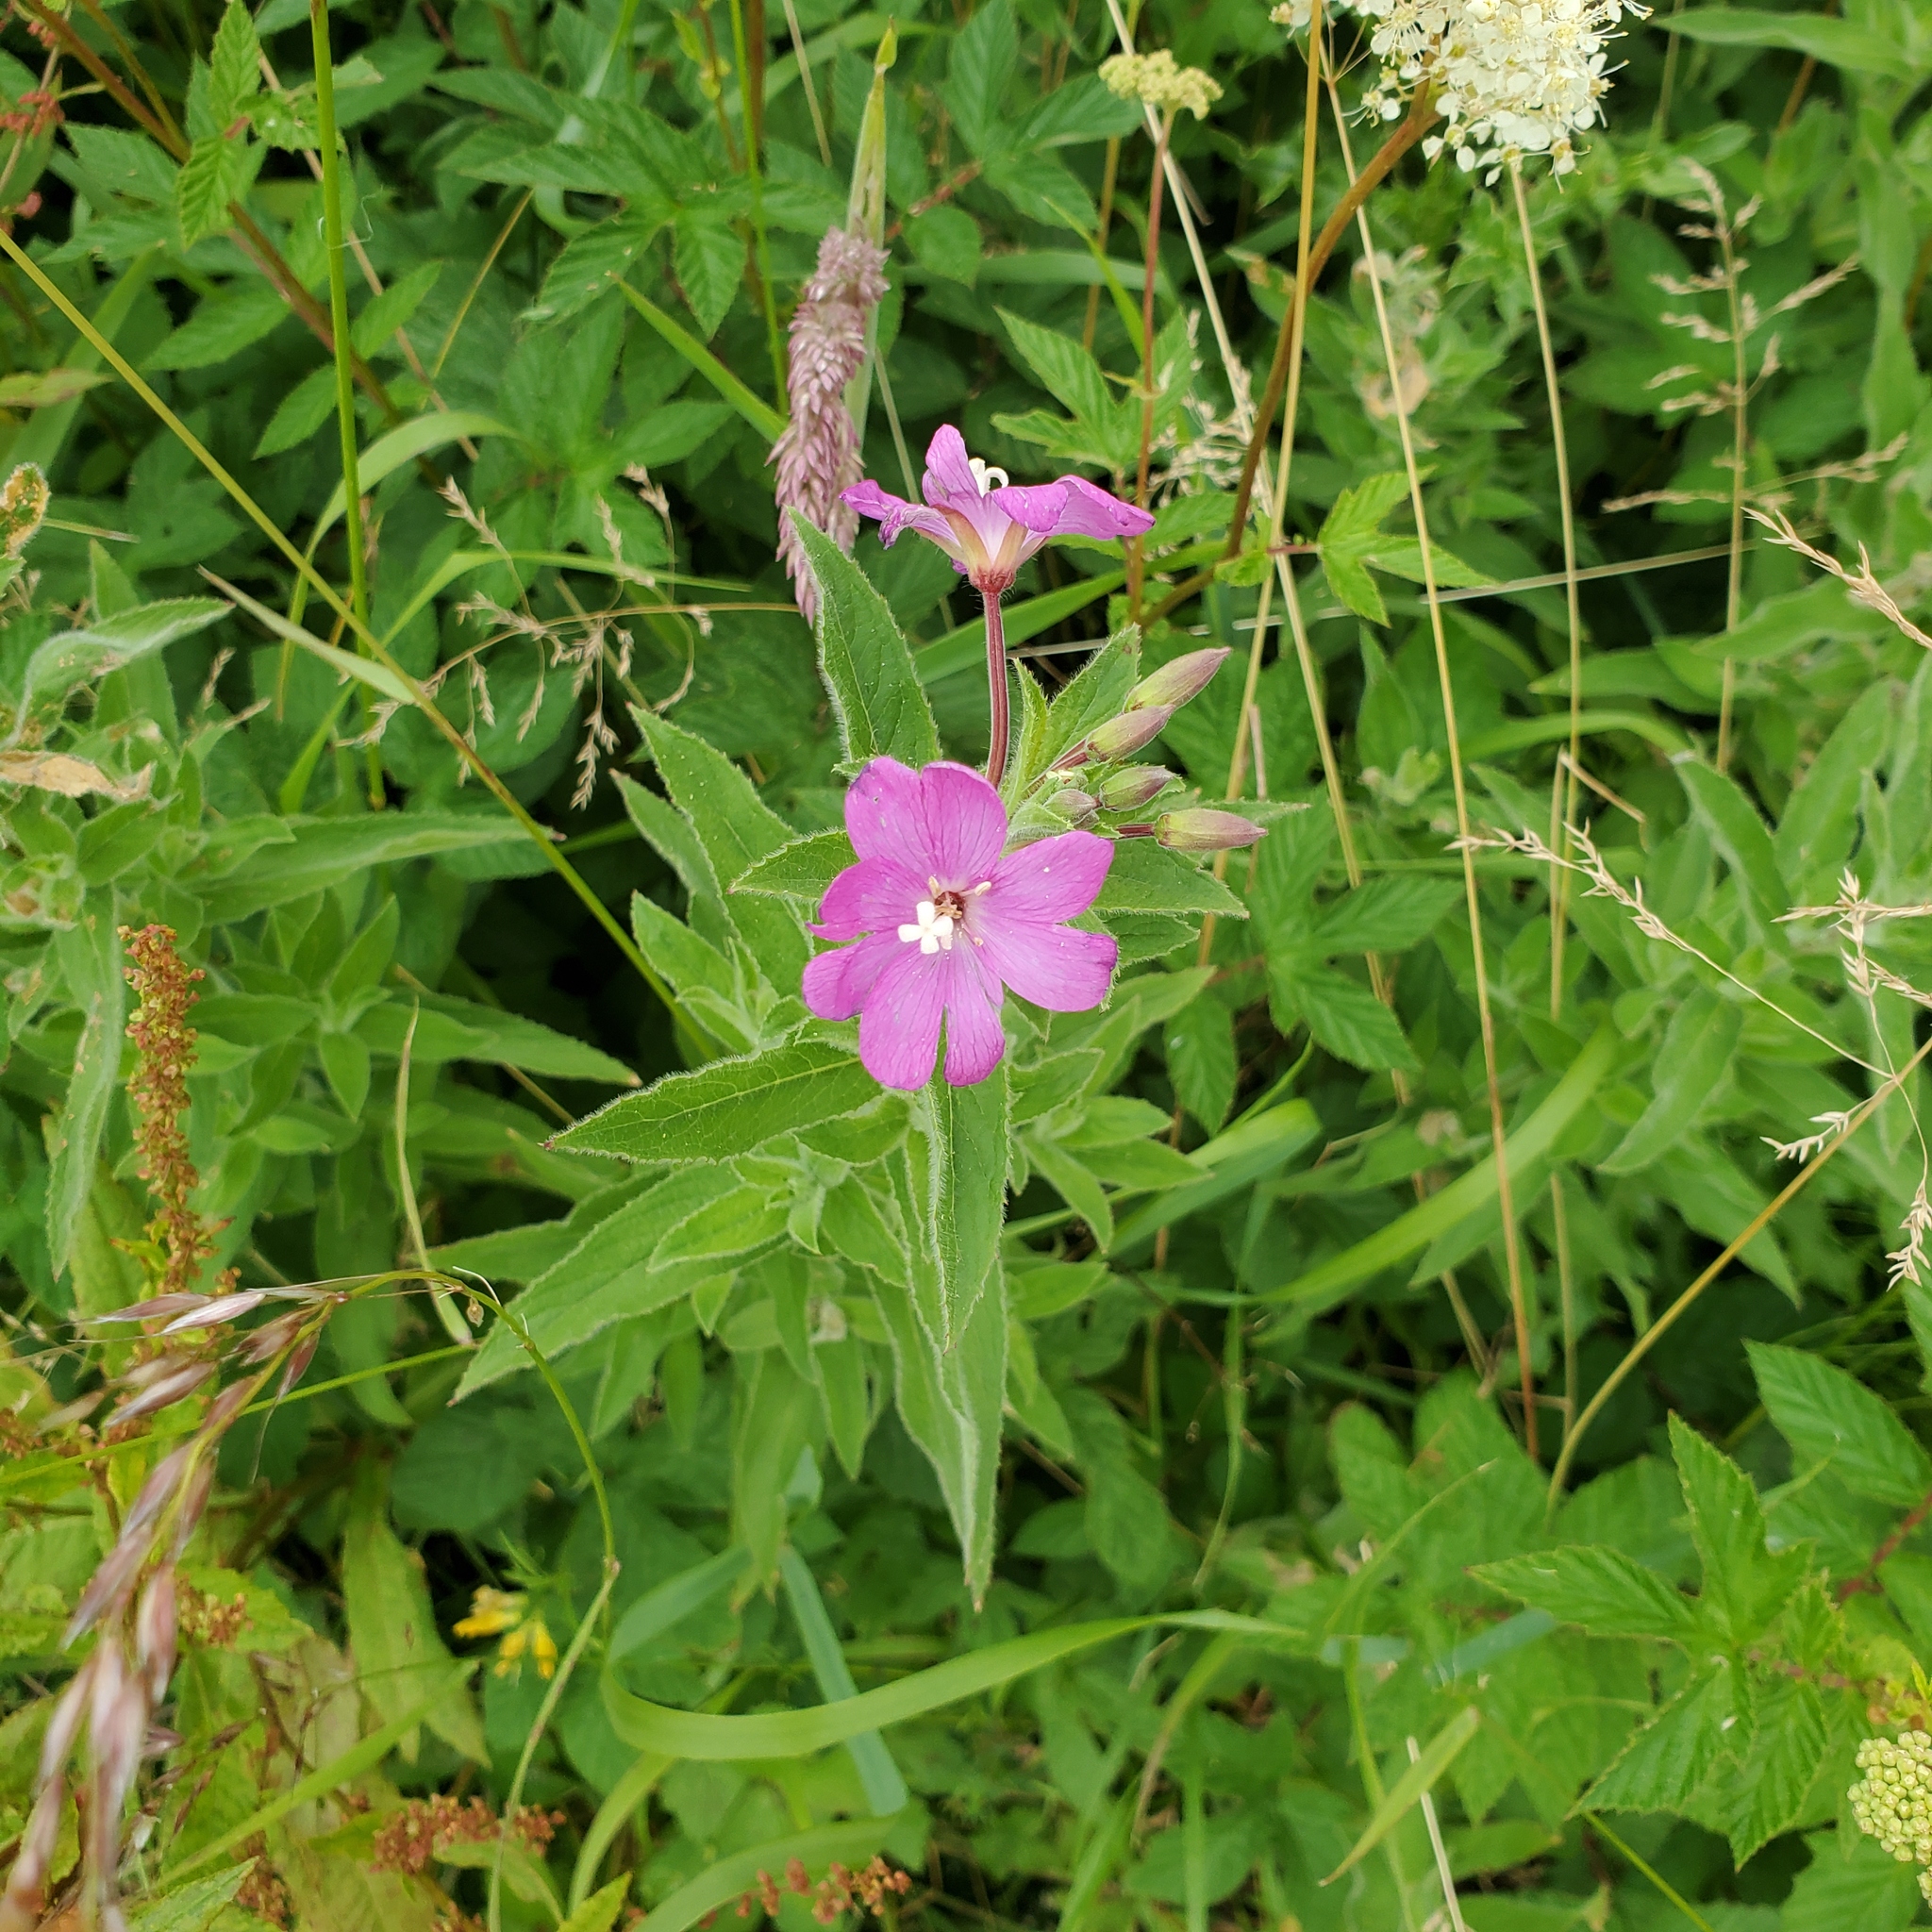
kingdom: Plantae
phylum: Tracheophyta
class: Magnoliopsida
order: Myrtales
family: Onagraceae
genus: Epilobium
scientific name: Epilobium hirsutum
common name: Great willowherb
